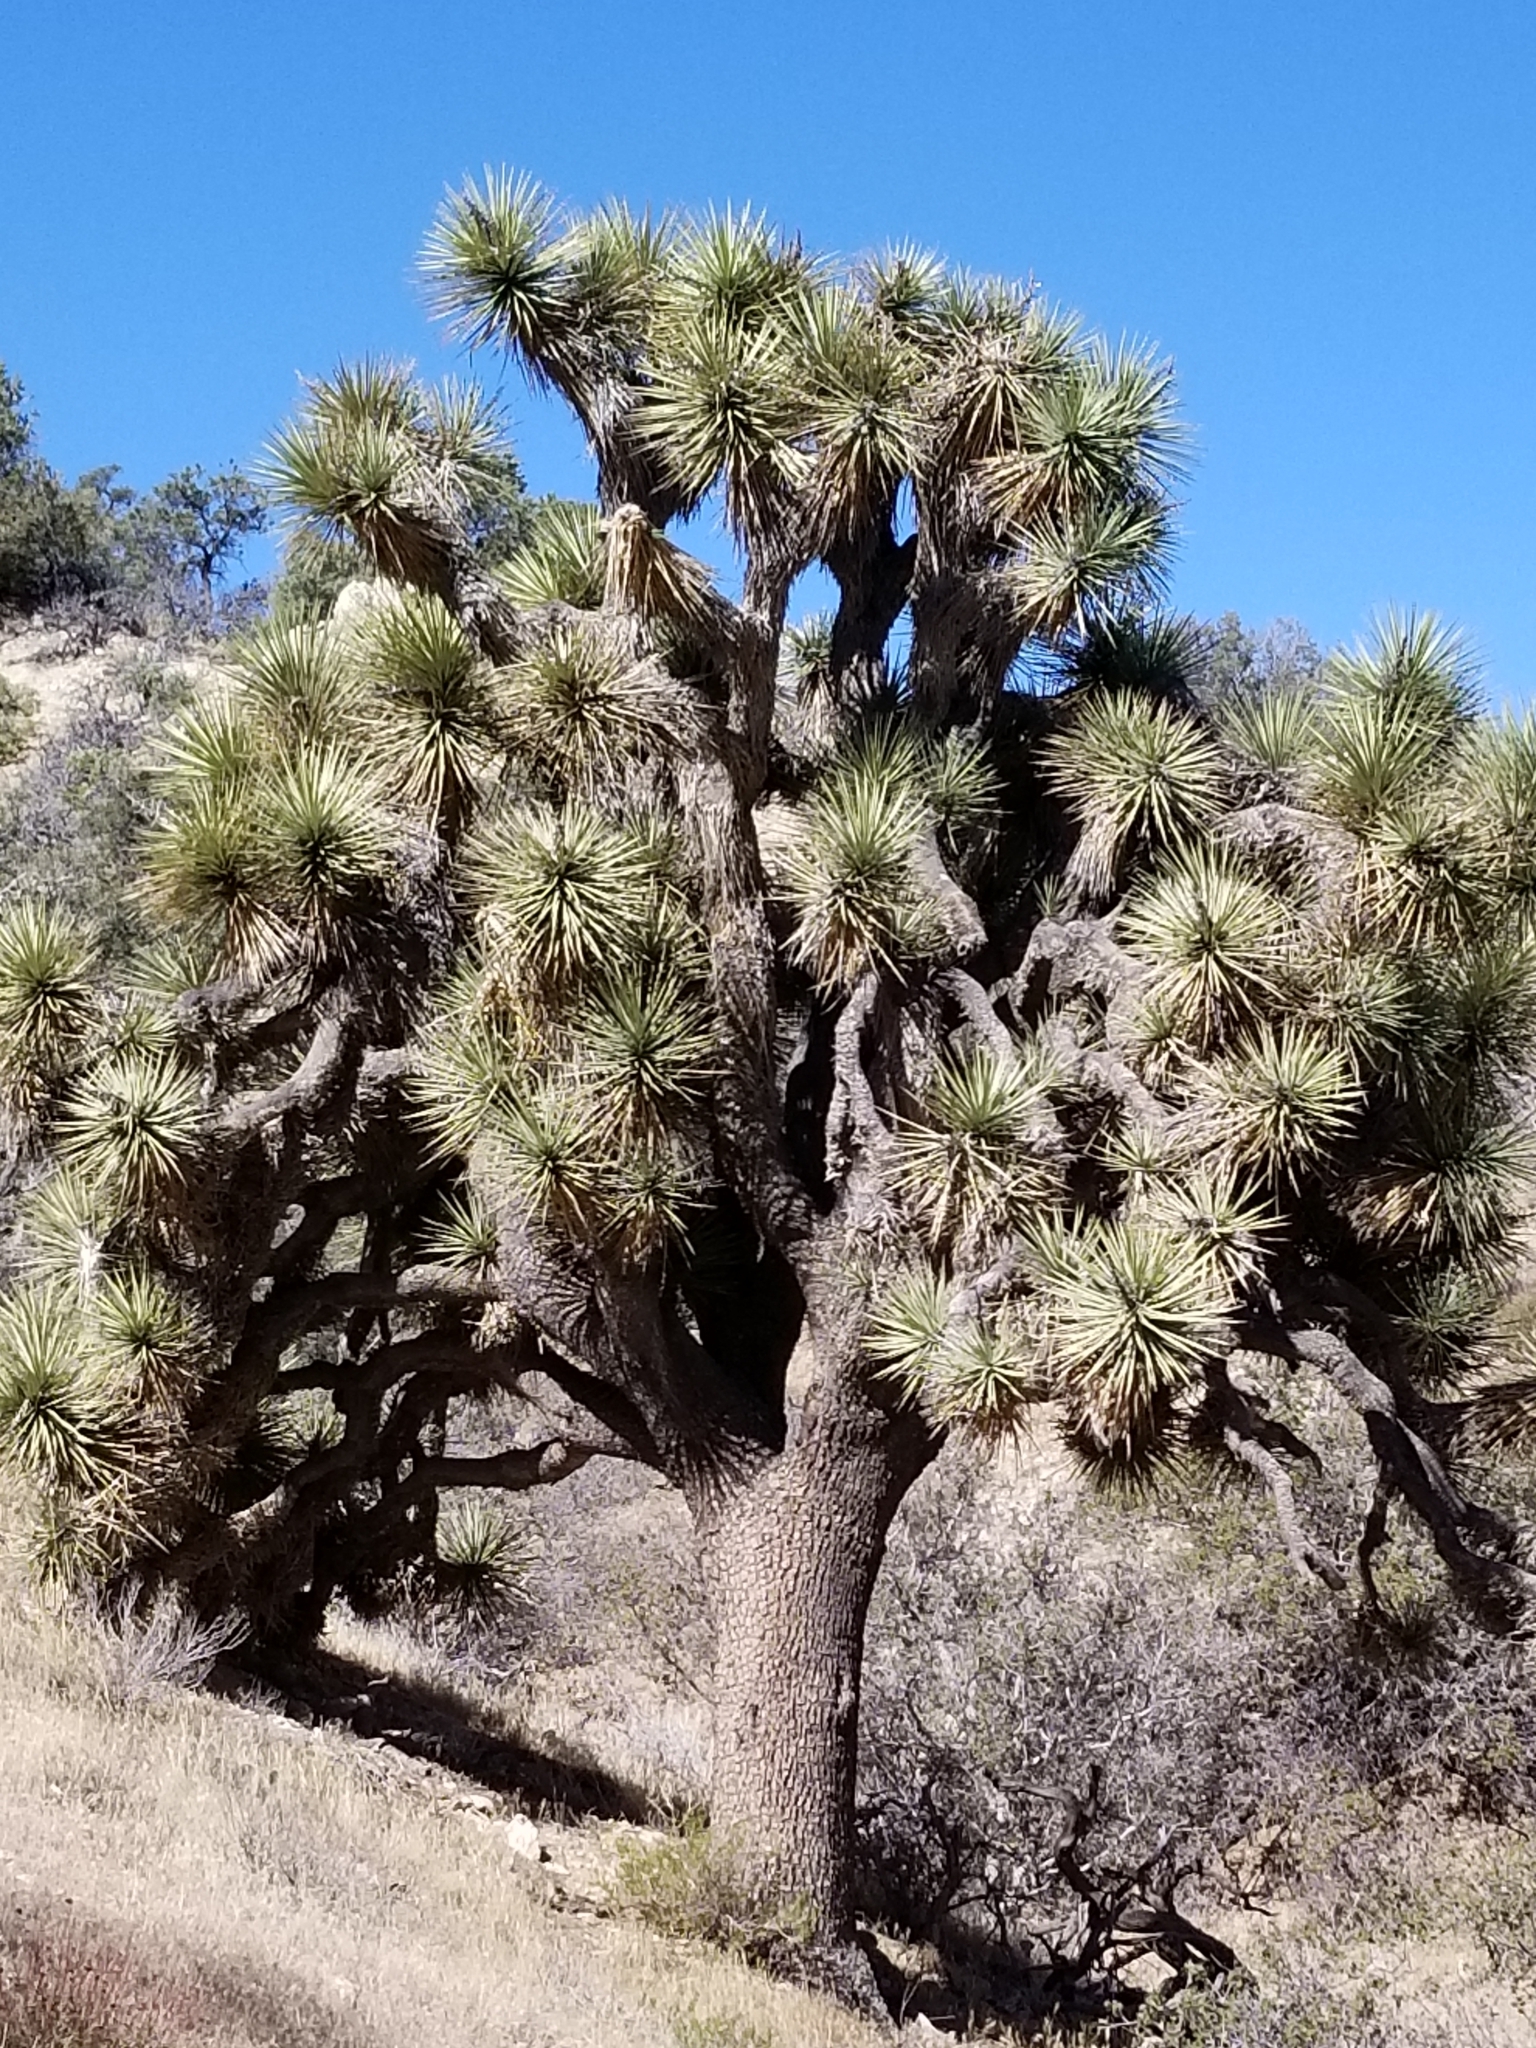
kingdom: Plantae
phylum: Tracheophyta
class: Liliopsida
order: Asparagales
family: Asparagaceae
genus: Yucca
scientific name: Yucca brevifolia
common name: Joshua tree
